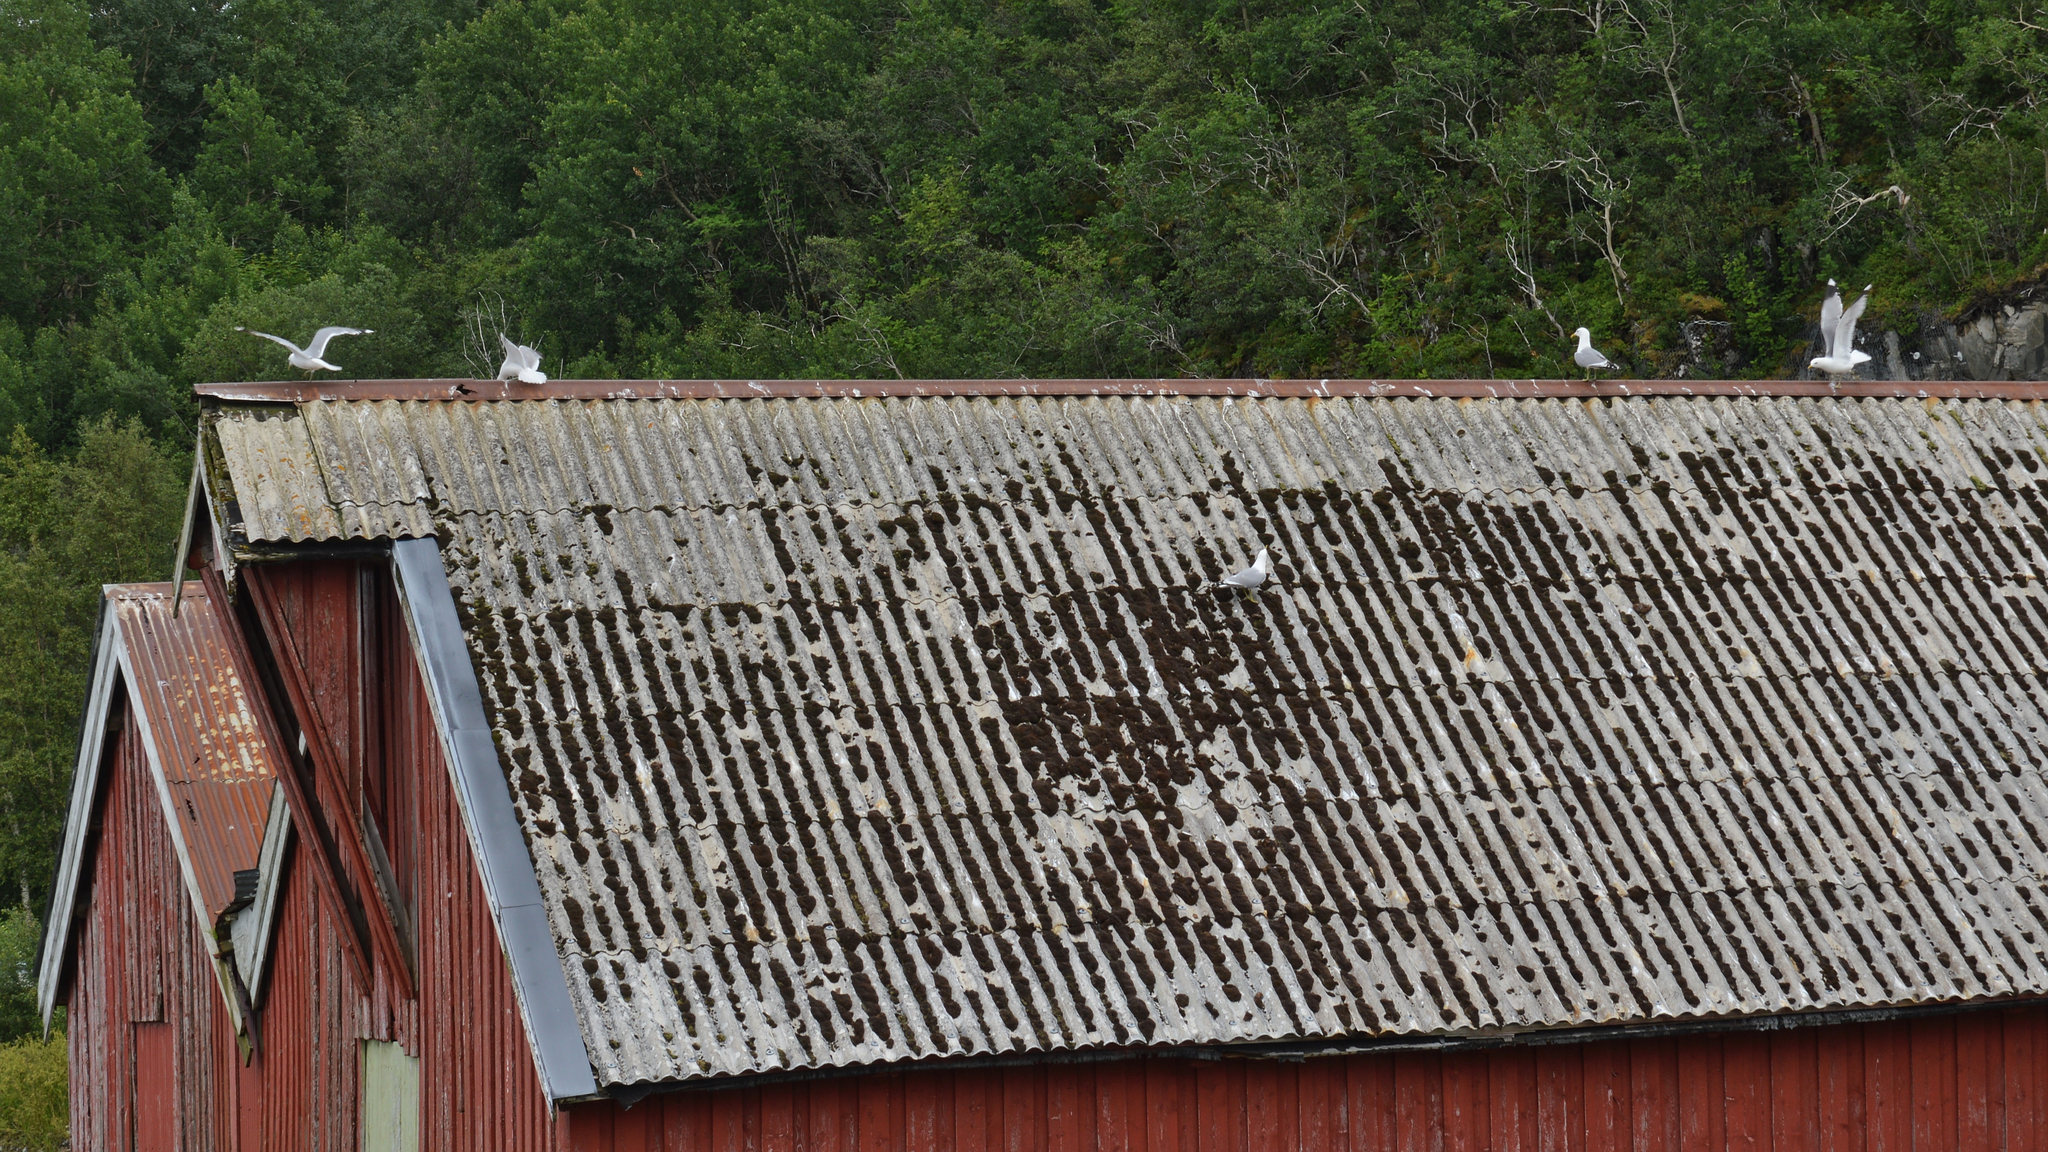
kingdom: Animalia
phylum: Chordata
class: Aves
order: Charadriiformes
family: Laridae
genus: Larus
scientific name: Larus canus
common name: Mew gull
